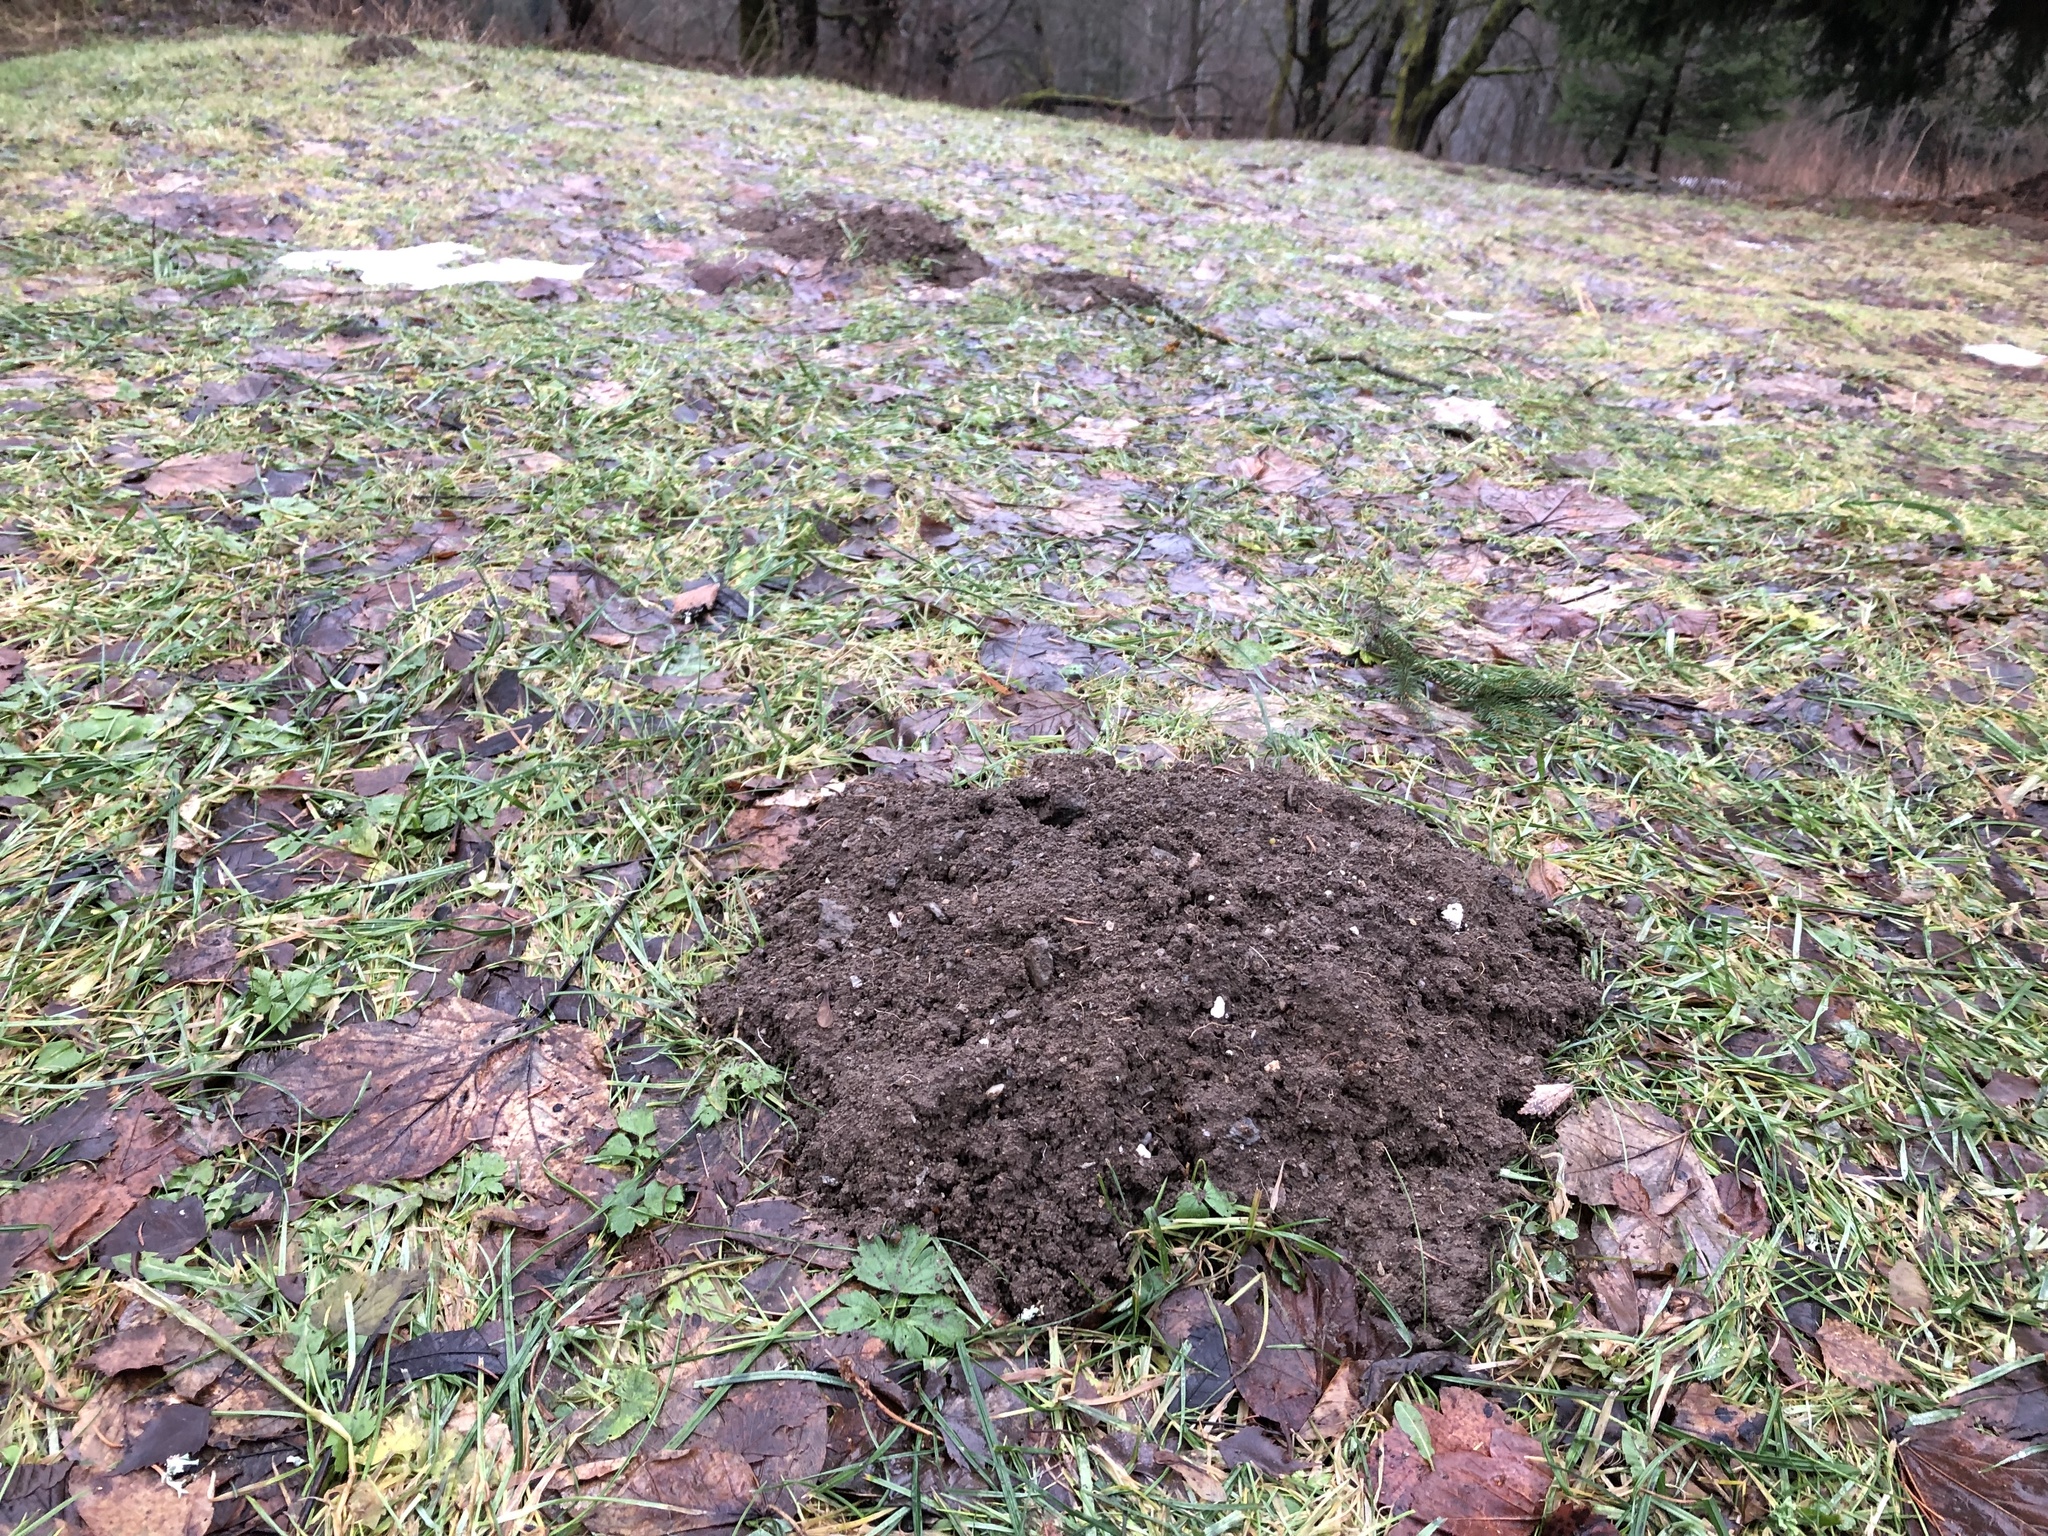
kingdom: Animalia
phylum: Chordata
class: Mammalia
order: Soricomorpha
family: Talpidae
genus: Talpa
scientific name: Talpa europaea
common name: European mole
